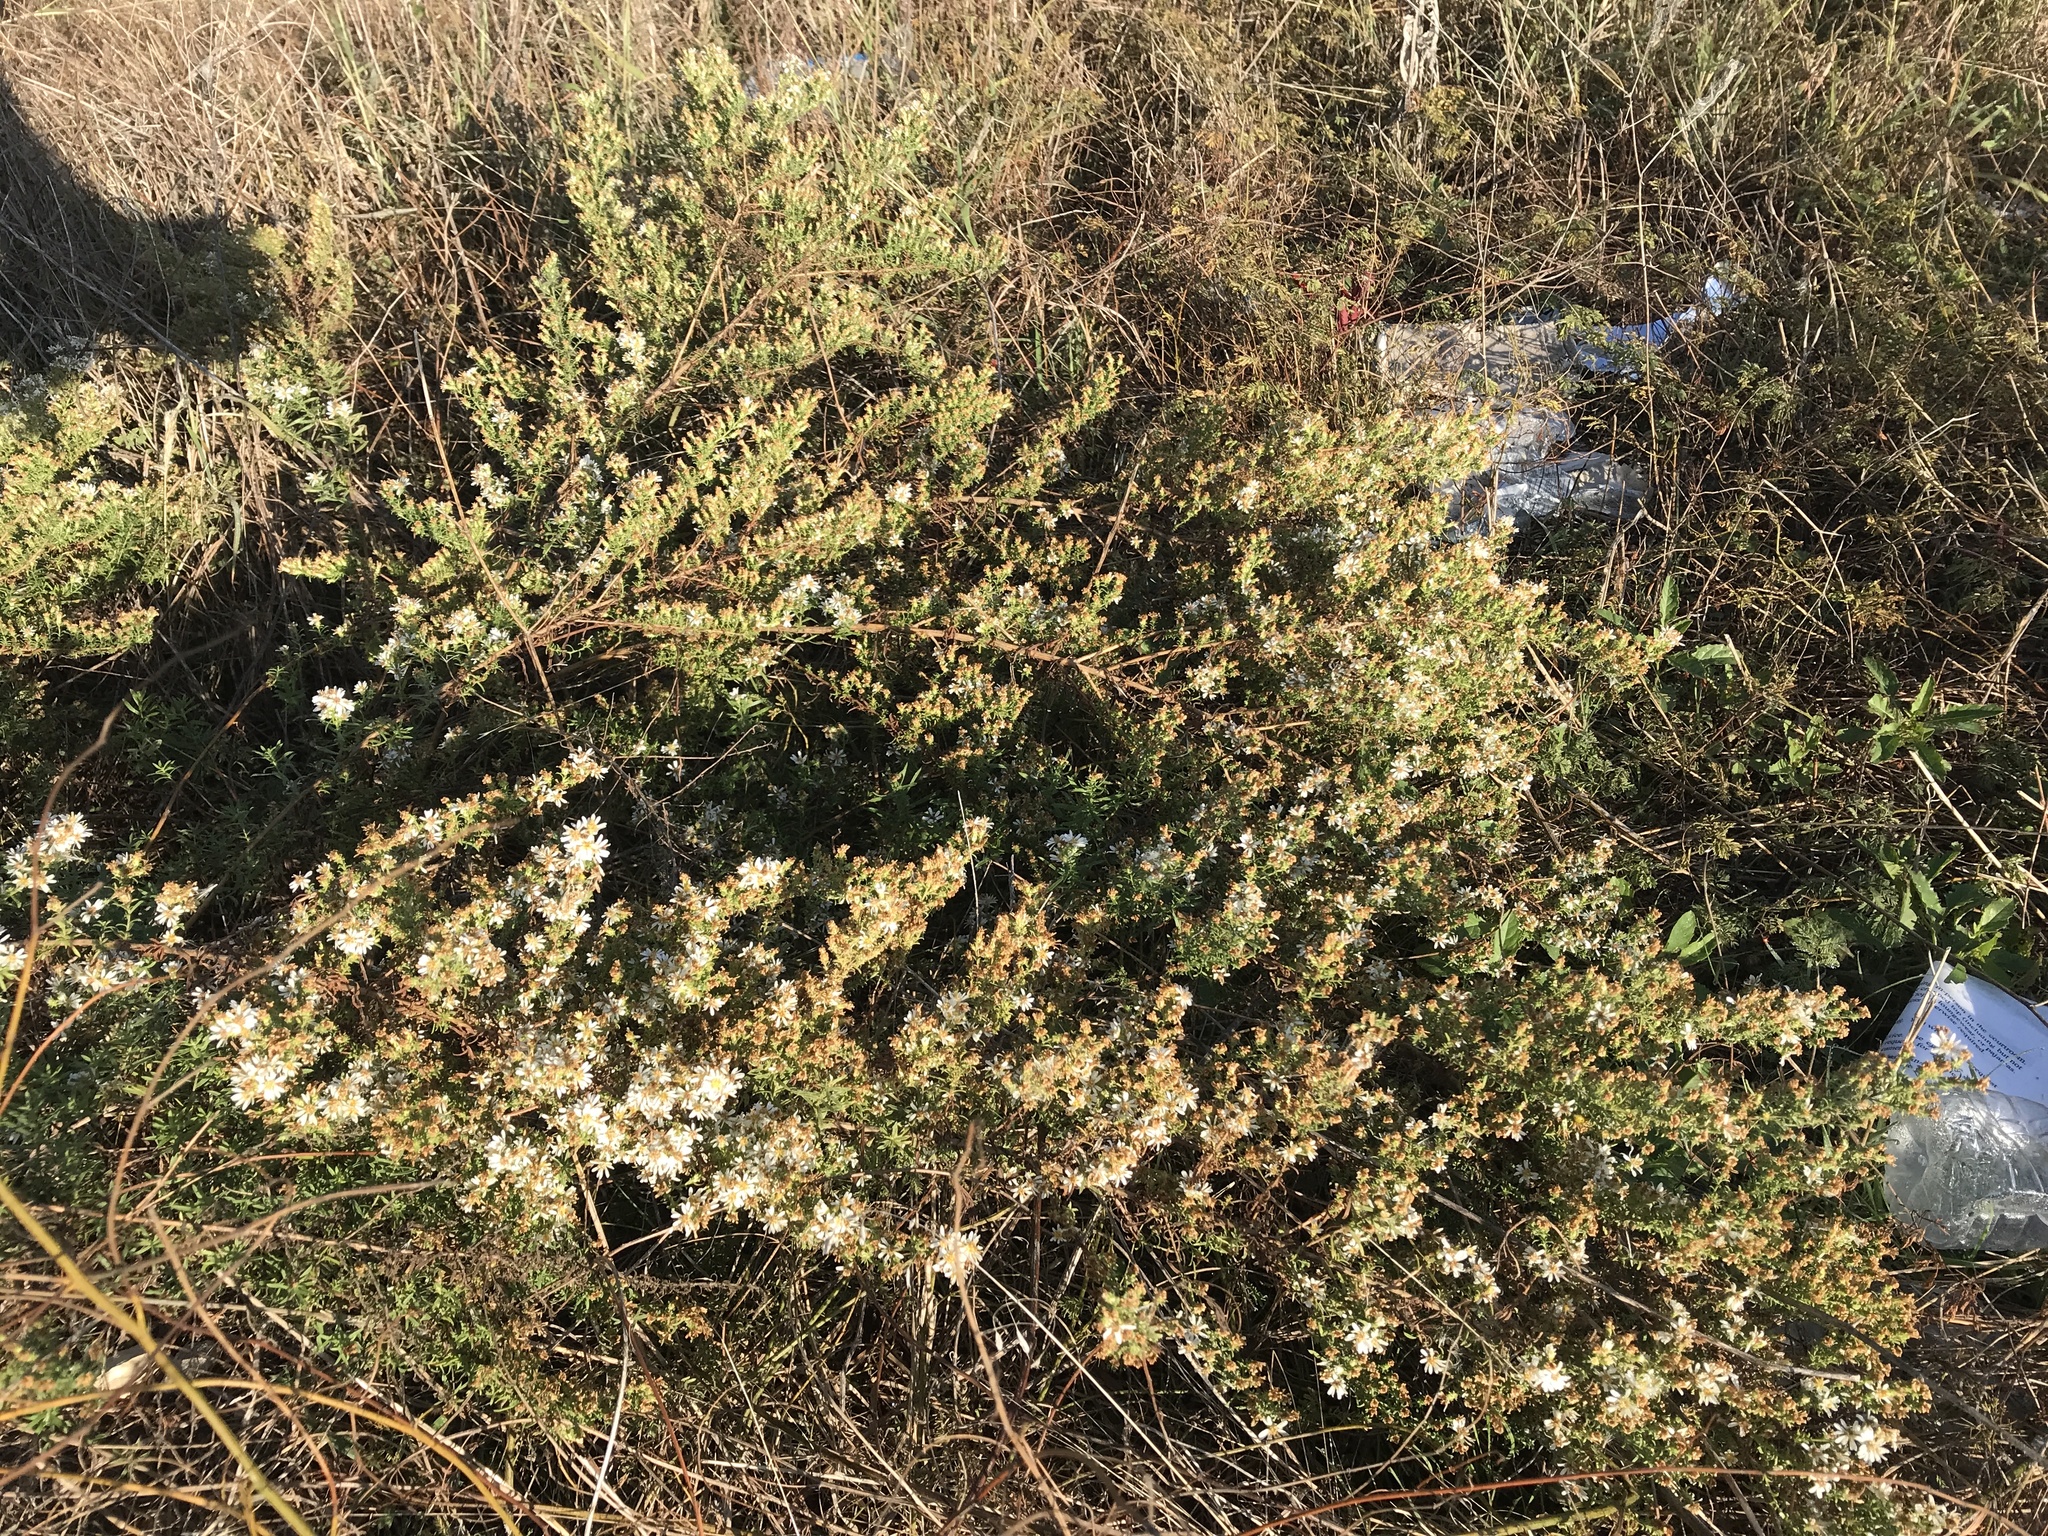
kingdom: Plantae
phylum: Tracheophyta
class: Magnoliopsida
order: Asterales
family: Asteraceae
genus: Symphyotrichum
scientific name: Symphyotrichum ericoides
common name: Heath aster
